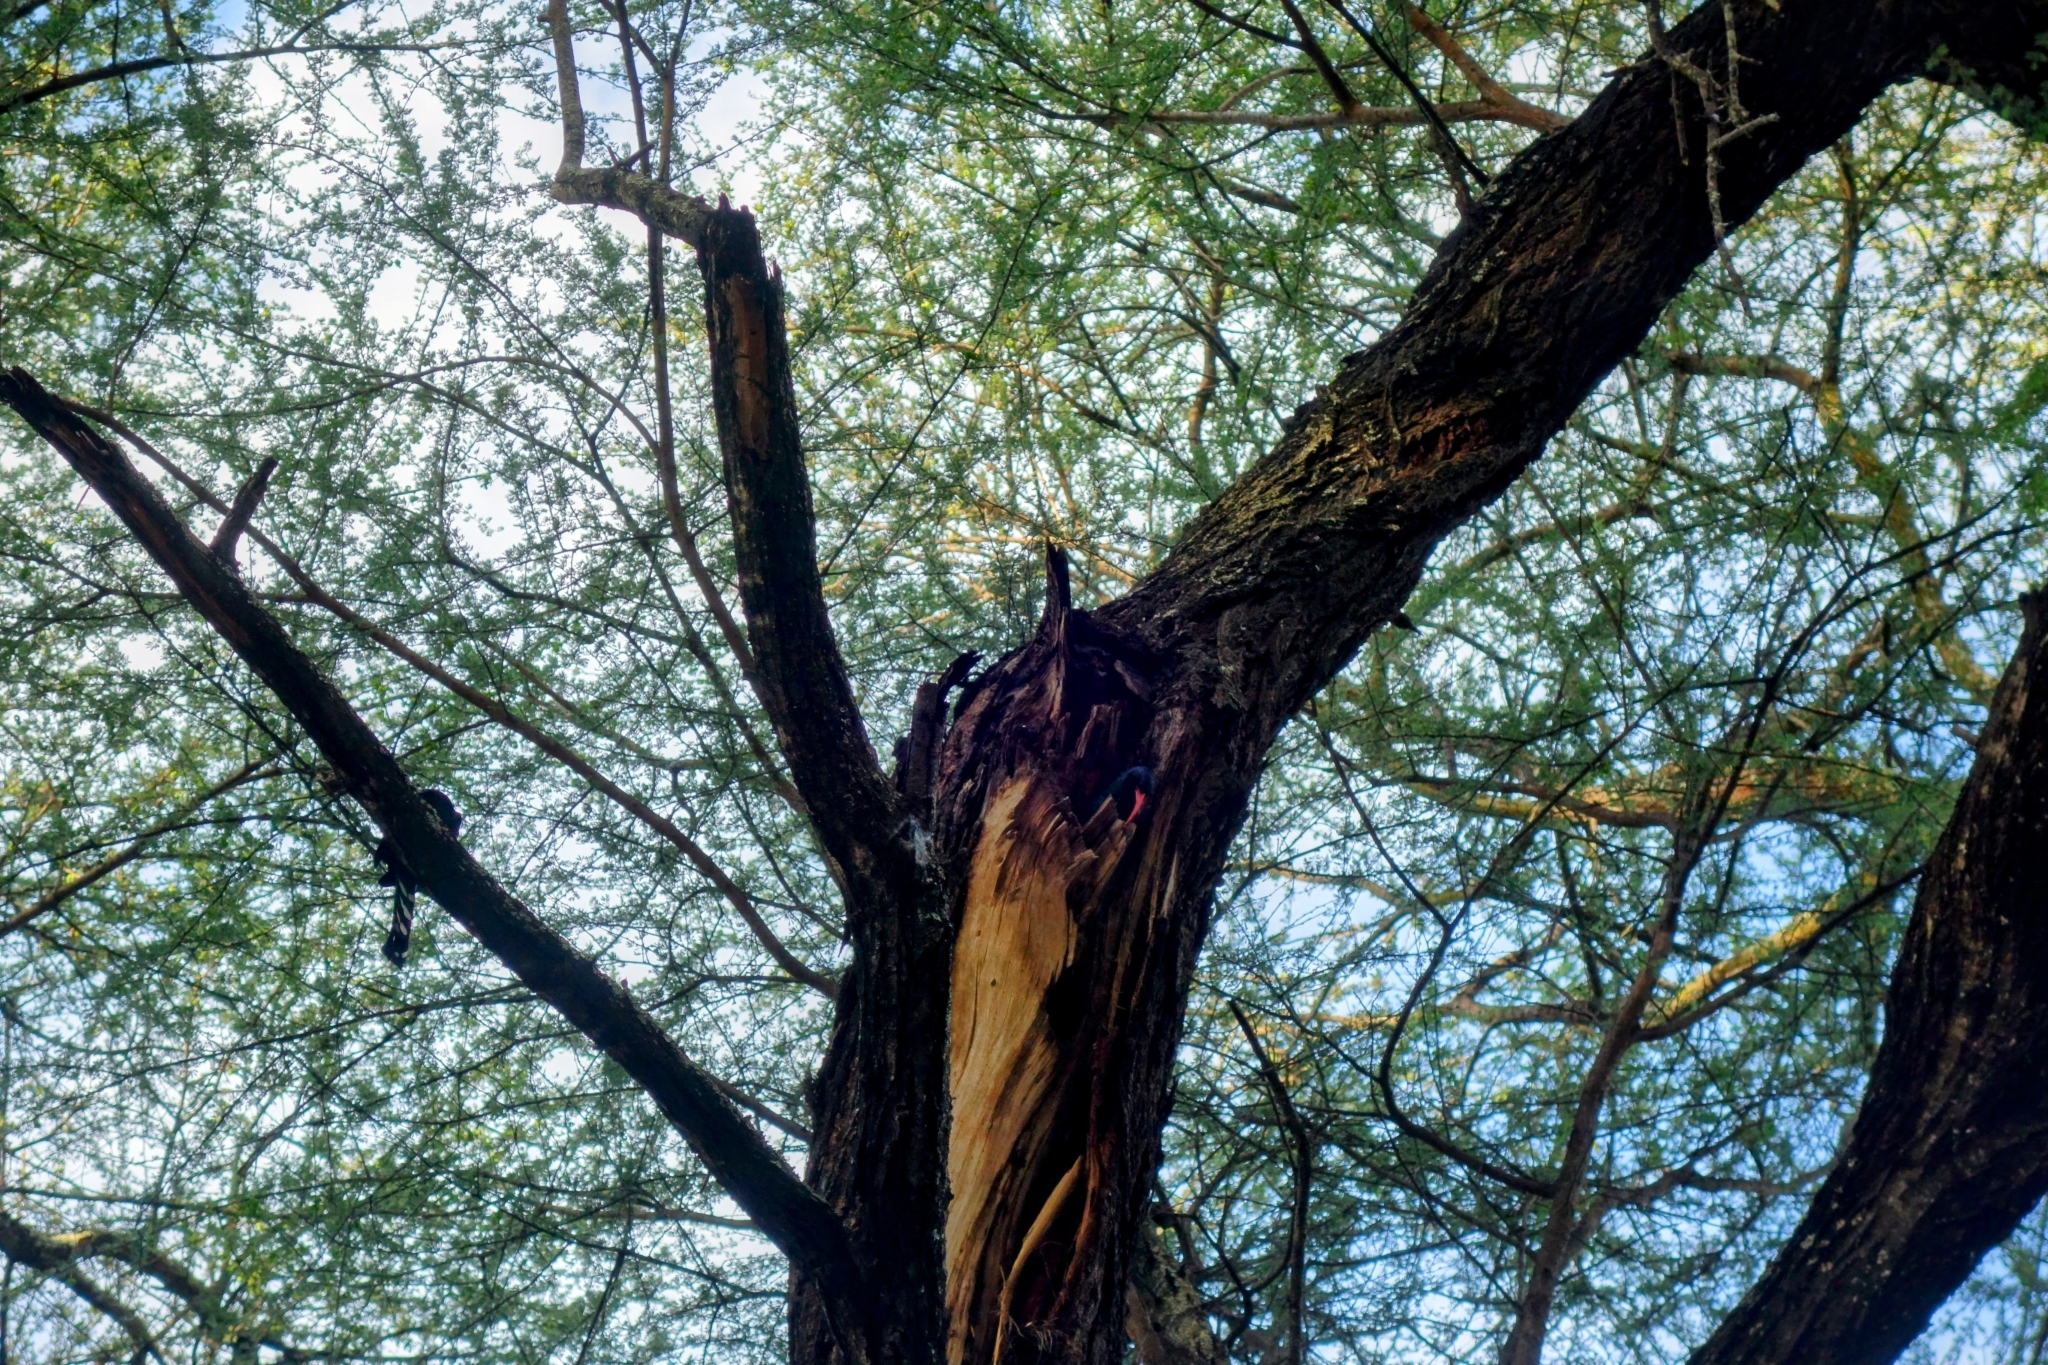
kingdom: Animalia
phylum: Chordata
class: Aves
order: Bucerotiformes
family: Phoeniculidae
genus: Phoeniculus
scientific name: Phoeniculus purpureus
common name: Green woodhoopoe
